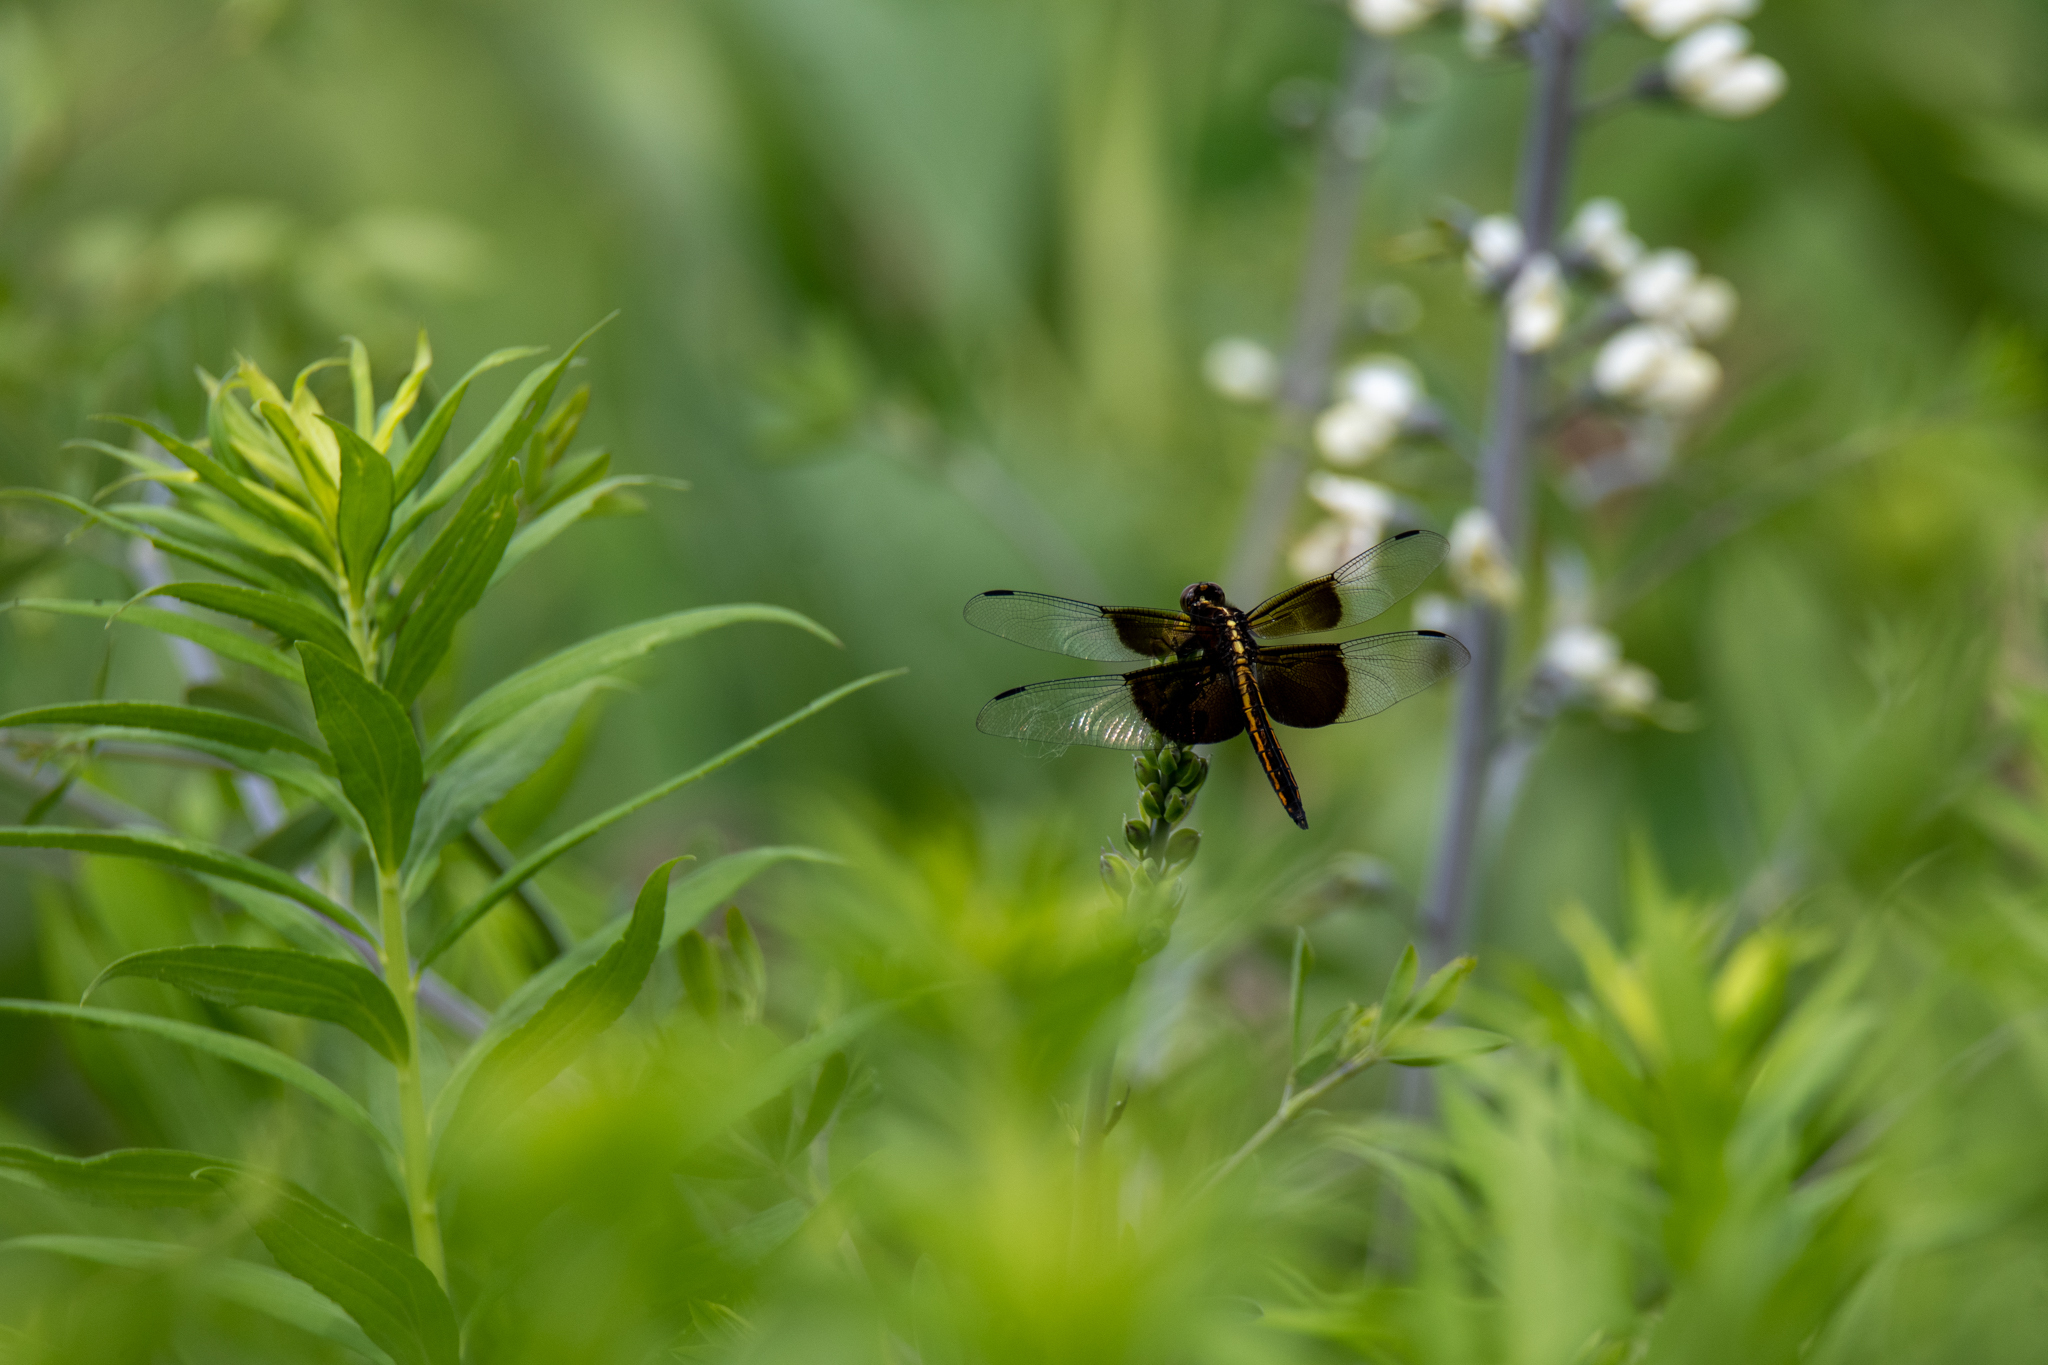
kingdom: Animalia
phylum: Arthropoda
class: Insecta
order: Odonata
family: Libellulidae
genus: Libellula
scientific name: Libellula luctuosa
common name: Widow skimmer
